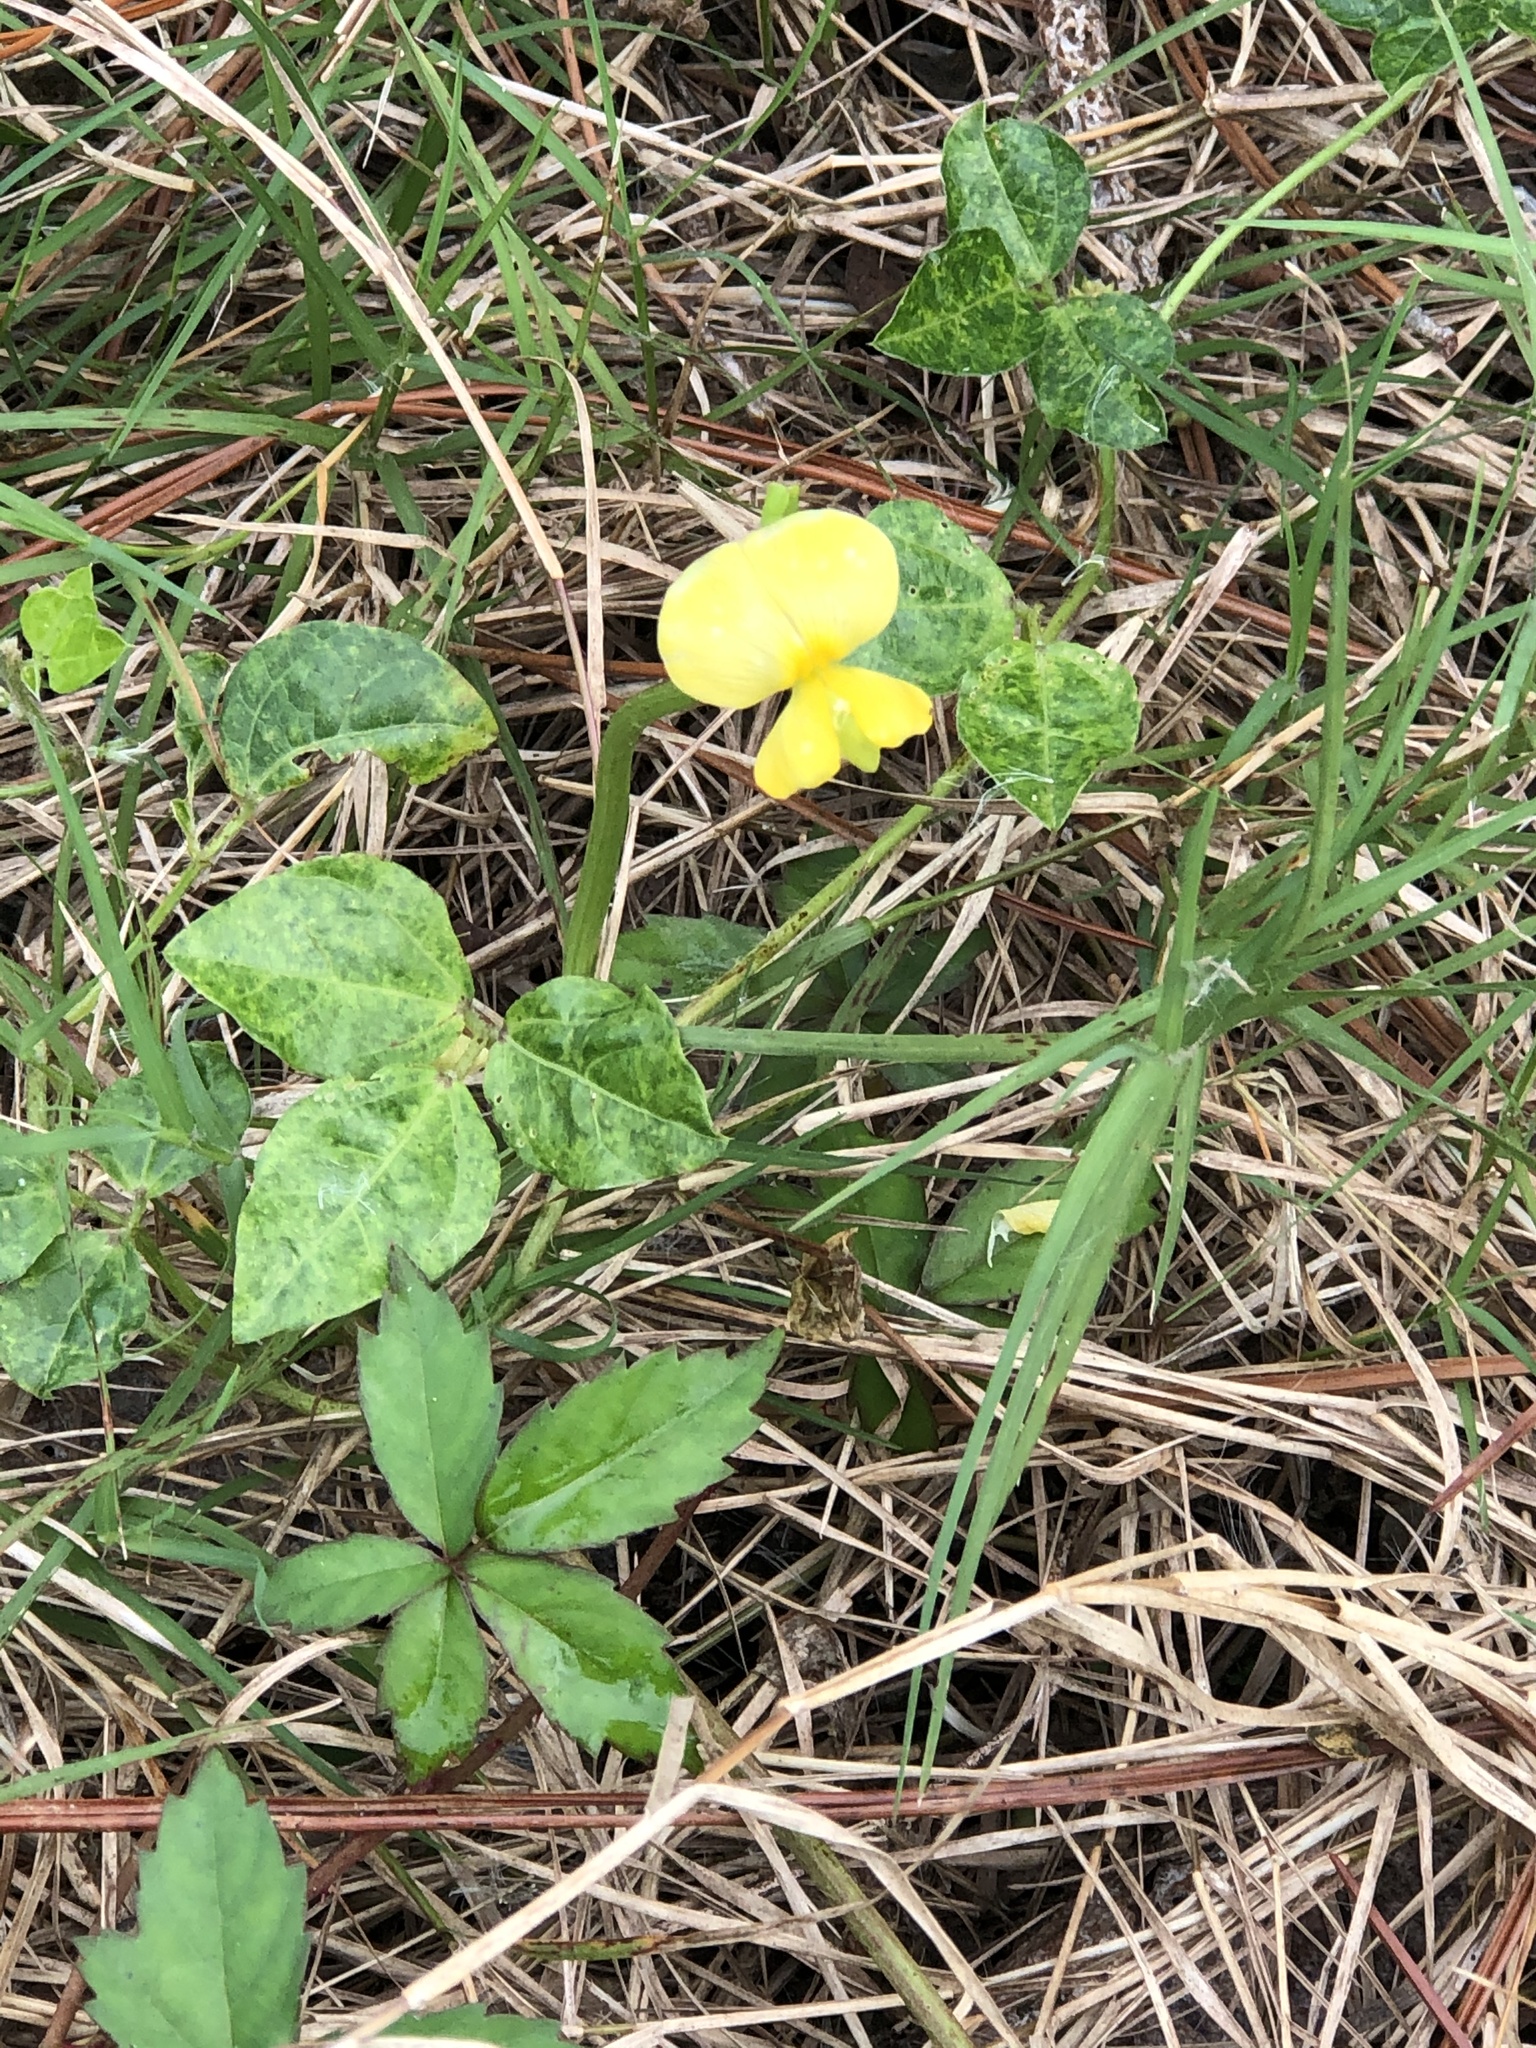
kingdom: Plantae
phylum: Tracheophyta
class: Magnoliopsida
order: Fabales
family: Fabaceae
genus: Vigna
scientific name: Vigna luteola
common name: Hairypod cowpea
